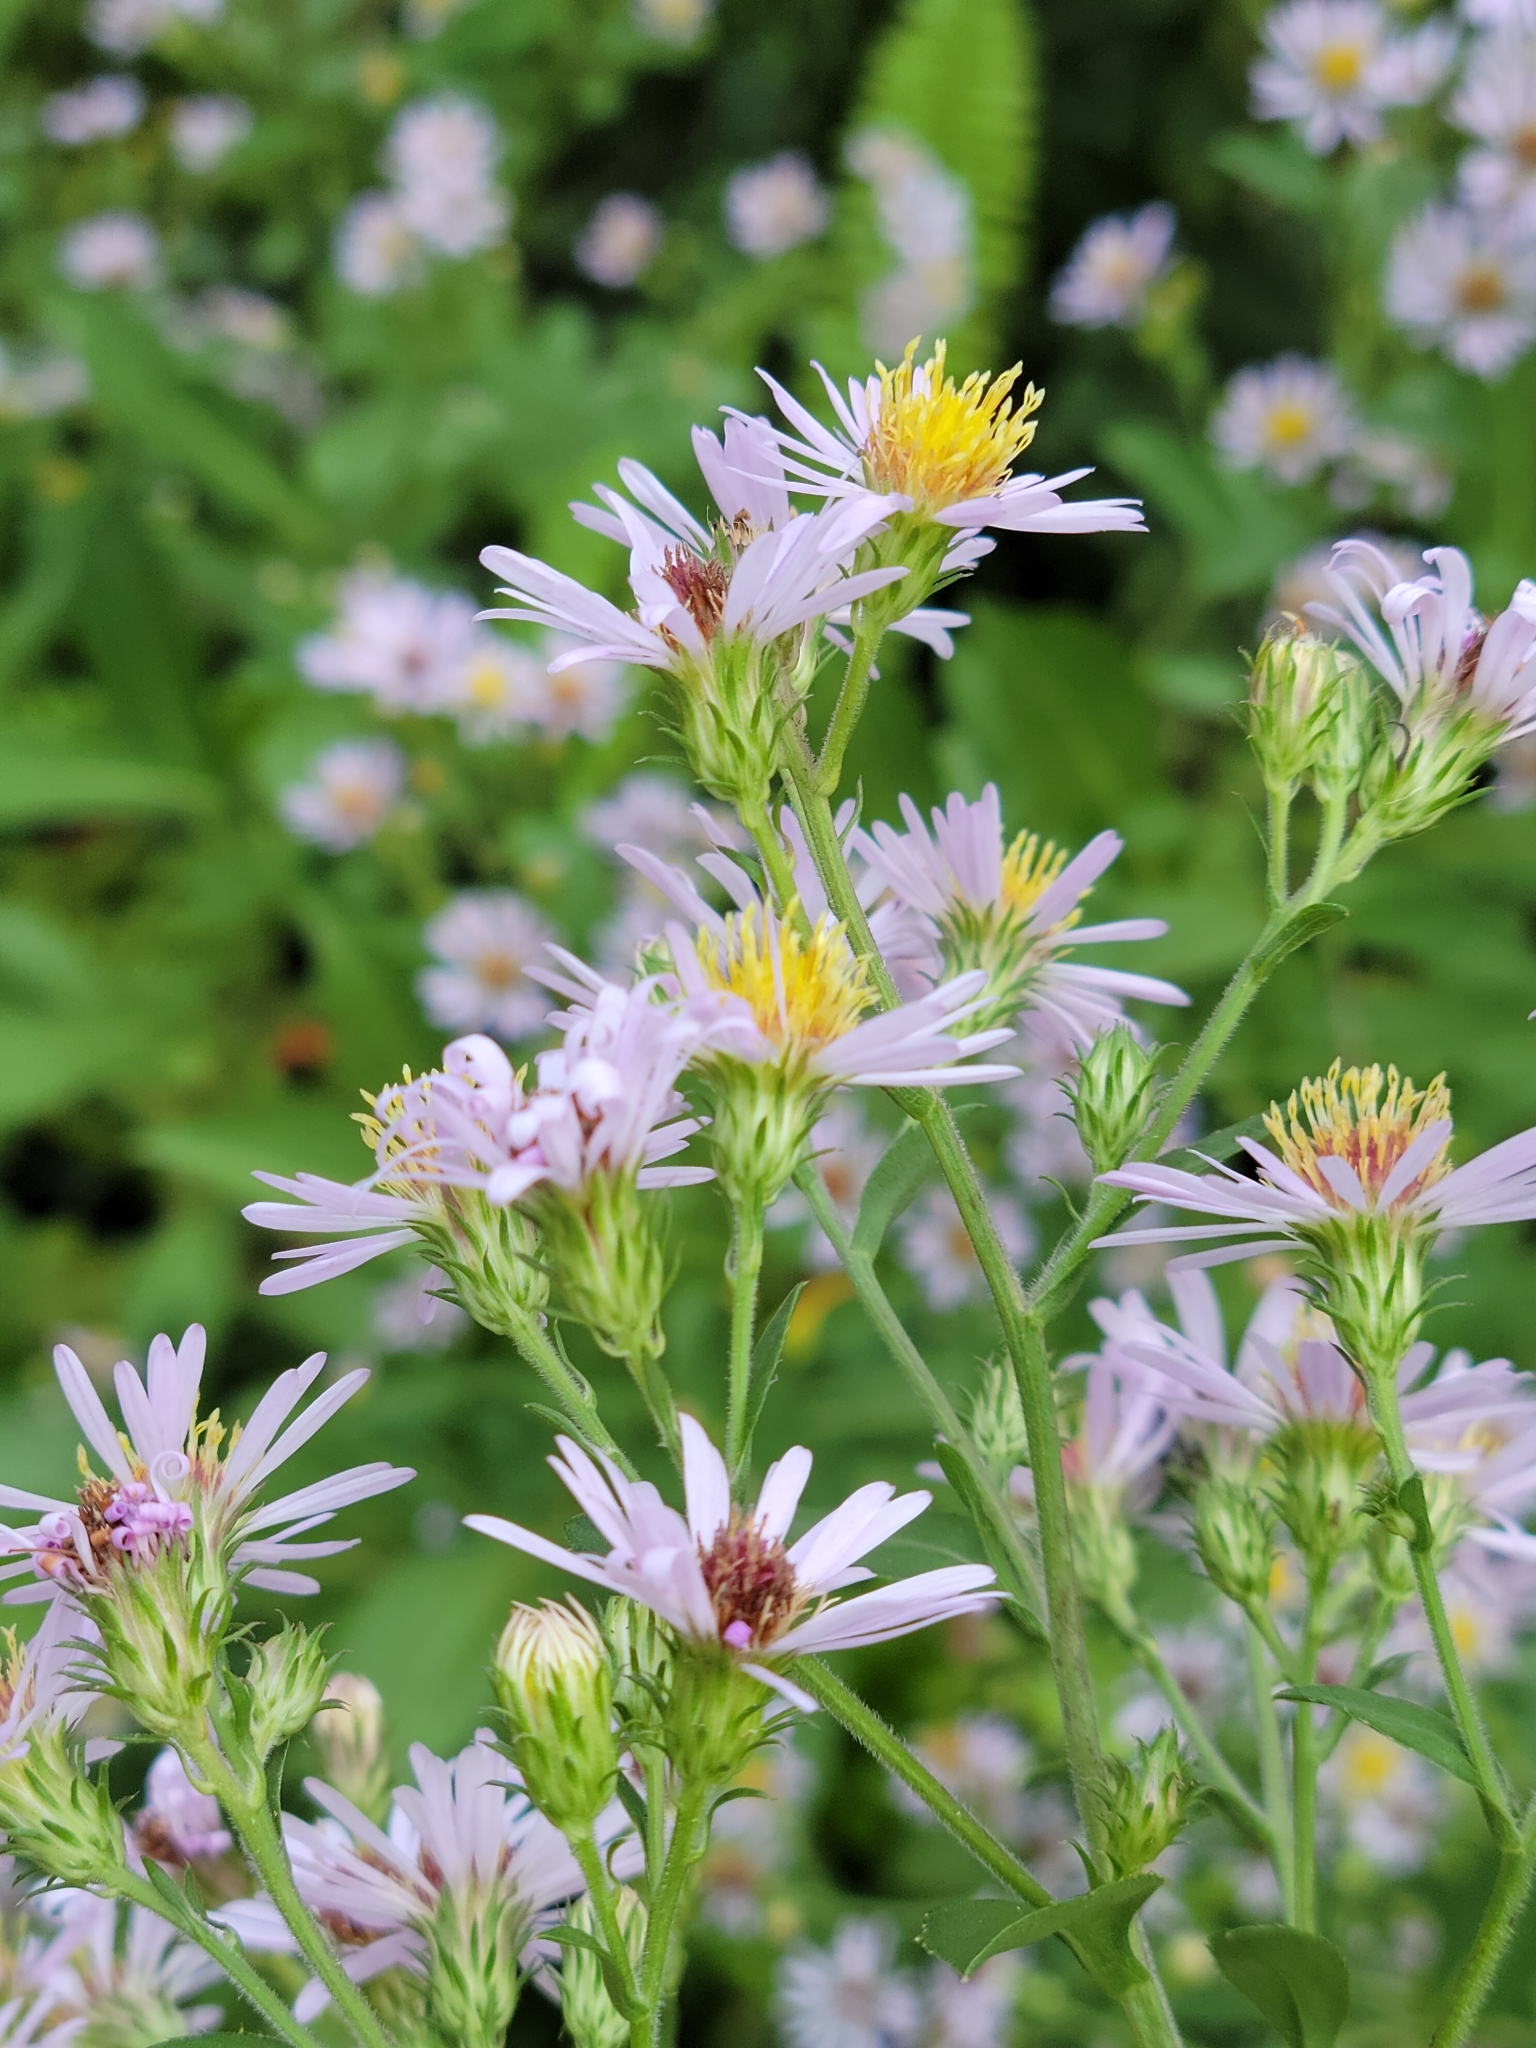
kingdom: Plantae
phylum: Tracheophyta
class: Magnoliopsida
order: Asterales
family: Asteraceae
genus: Symphyotrichum
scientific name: Symphyotrichum elliottii
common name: Southern swamp aster
